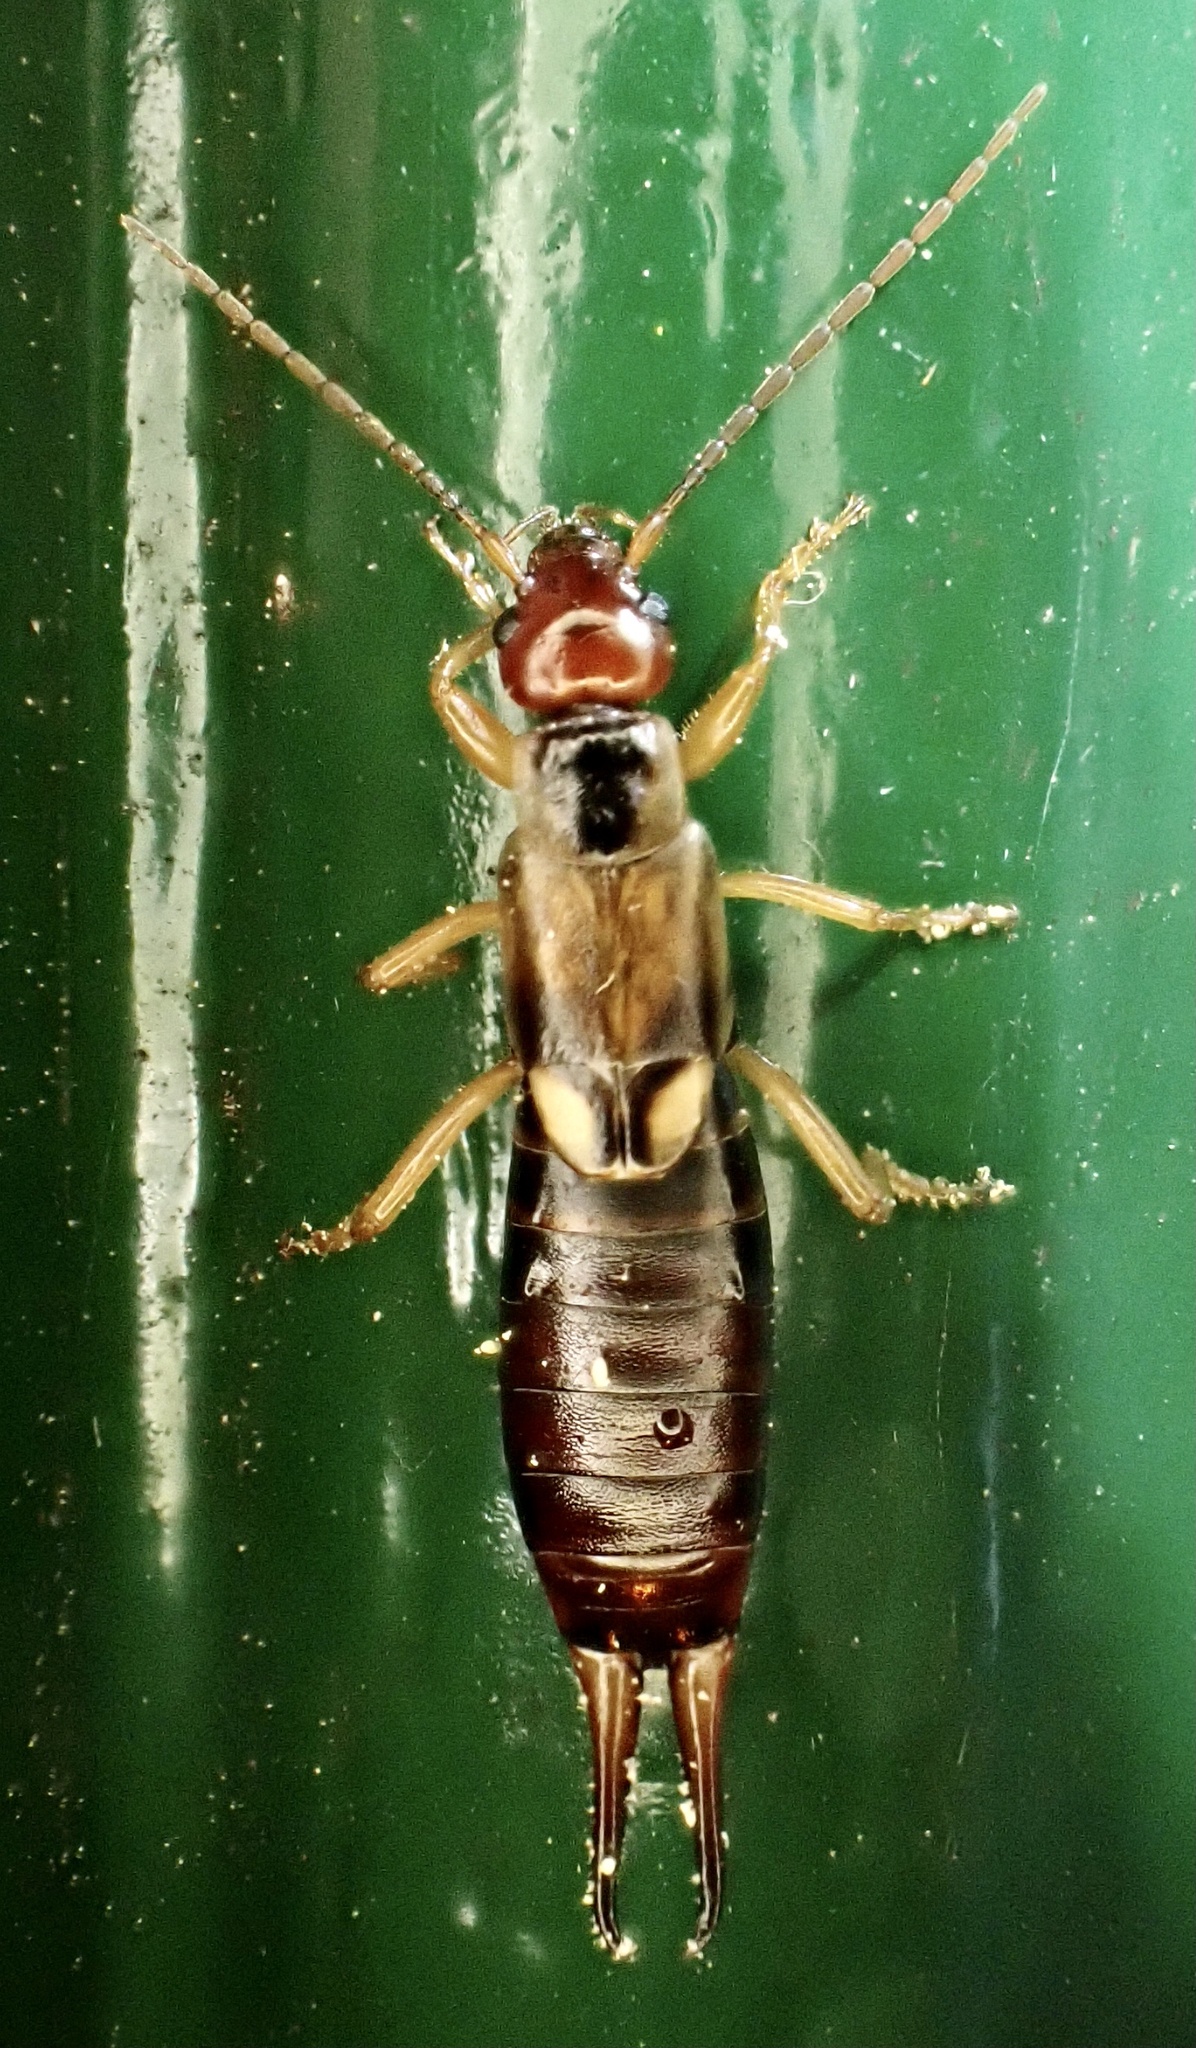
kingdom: Animalia
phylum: Arthropoda
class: Insecta
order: Dermaptera
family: Forficulidae
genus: Forficula
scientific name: Forficula
